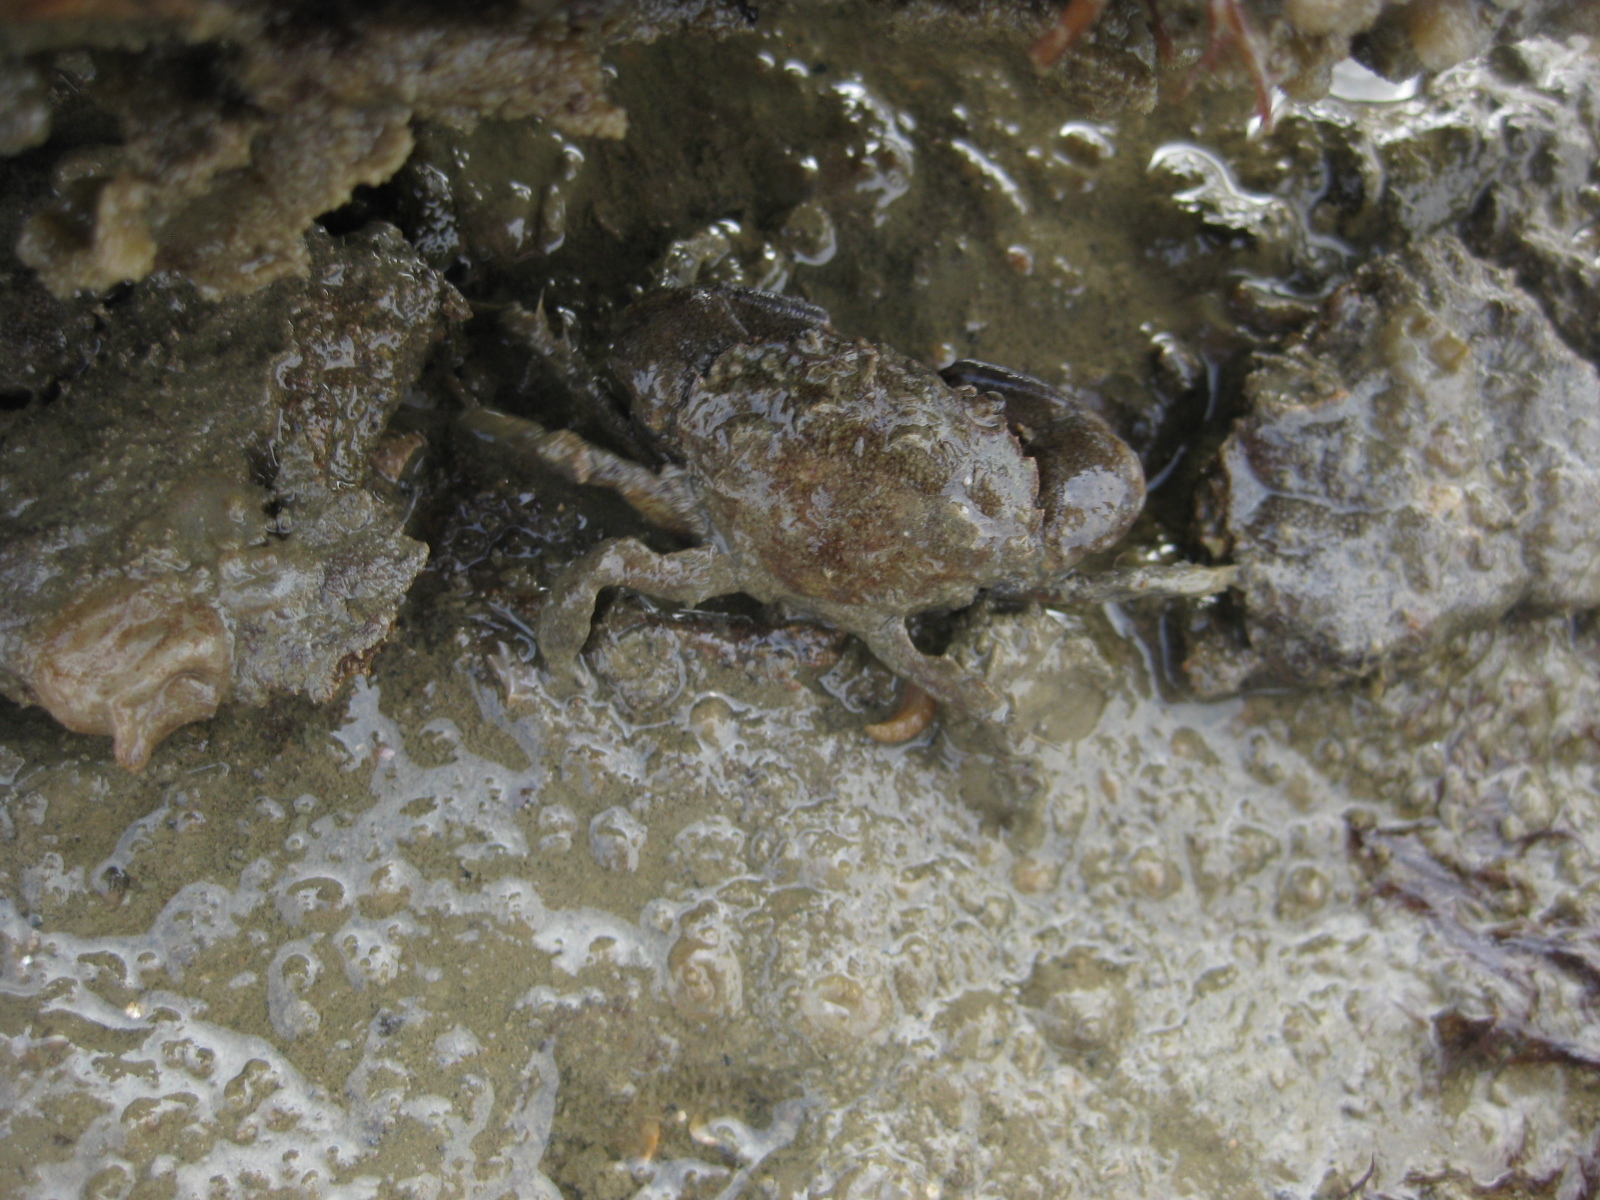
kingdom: Animalia
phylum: Arthropoda
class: Malacostraca
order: Decapoda
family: Pilumnidae
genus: Pilumnopeus
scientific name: Pilumnopeus serratifrons
